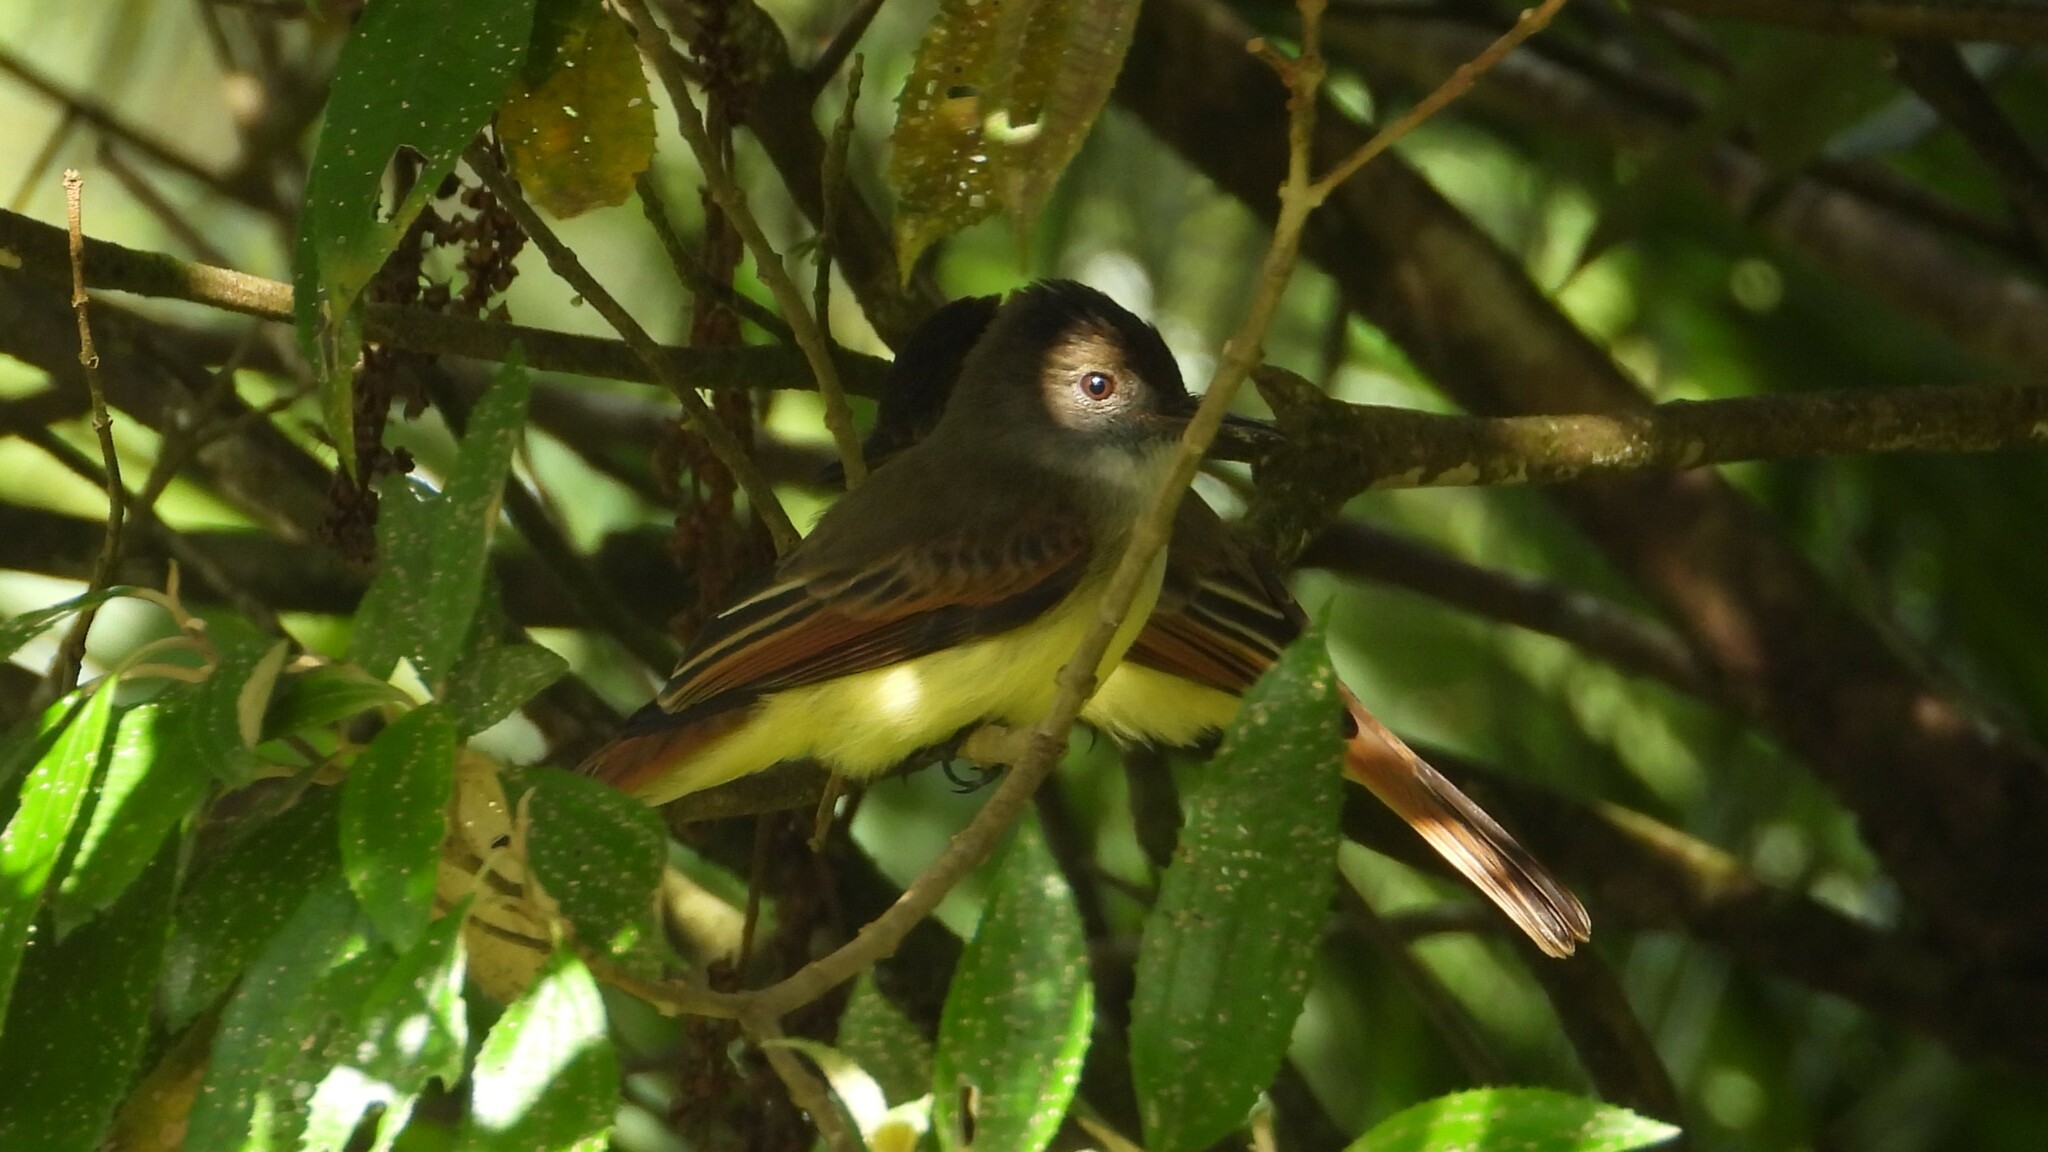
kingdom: Animalia
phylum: Chordata
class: Aves
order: Passeriformes
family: Tyrannidae
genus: Myiarchus
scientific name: Myiarchus tuberculifer
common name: Dusky-capped flycatcher
